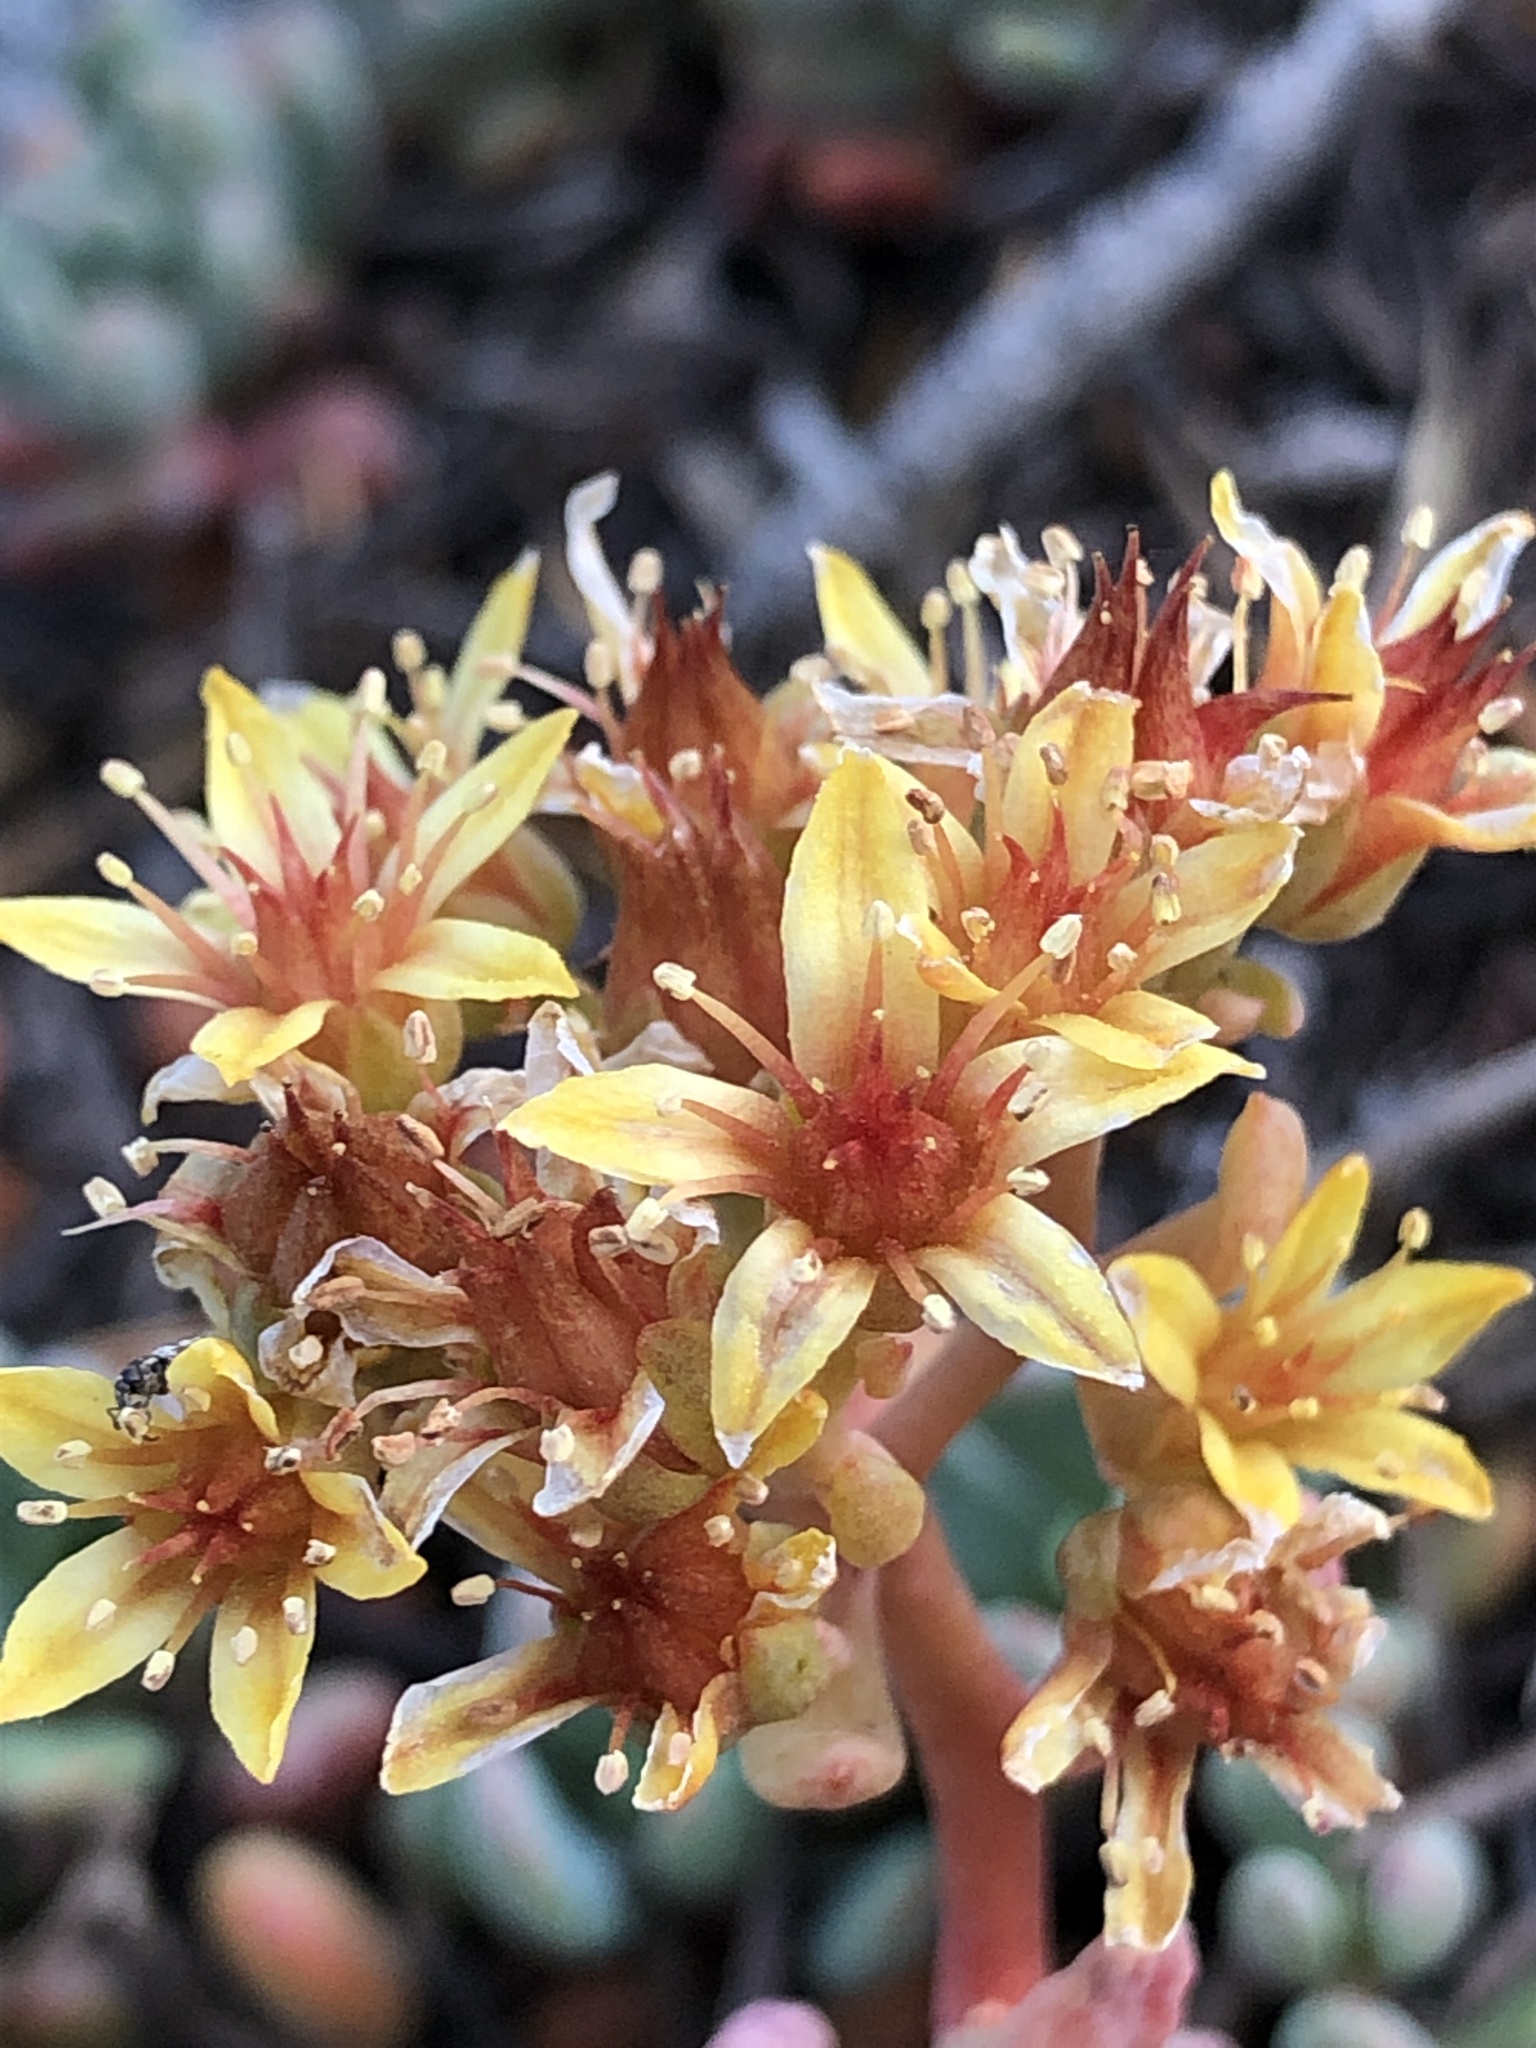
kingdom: Plantae
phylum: Tracheophyta
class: Magnoliopsida
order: Saxifragales
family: Crassulaceae
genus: Sedum
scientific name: Sedum obtusatum
